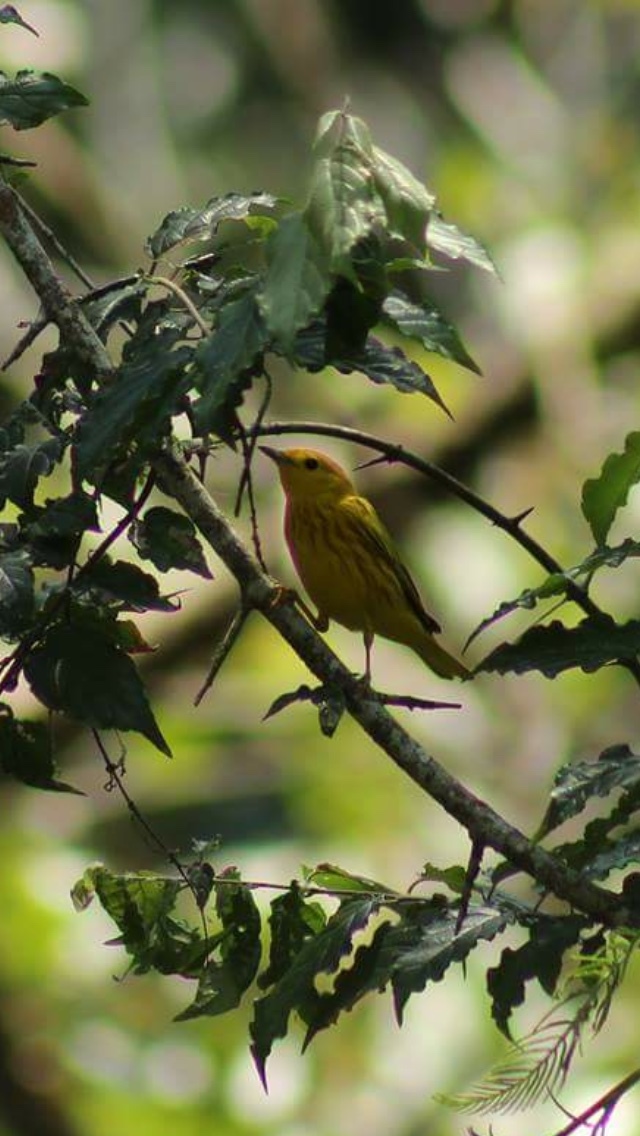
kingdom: Animalia
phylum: Chordata
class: Aves
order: Passeriformes
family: Parulidae
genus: Setophaga
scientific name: Setophaga petechia
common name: Yellow warbler
